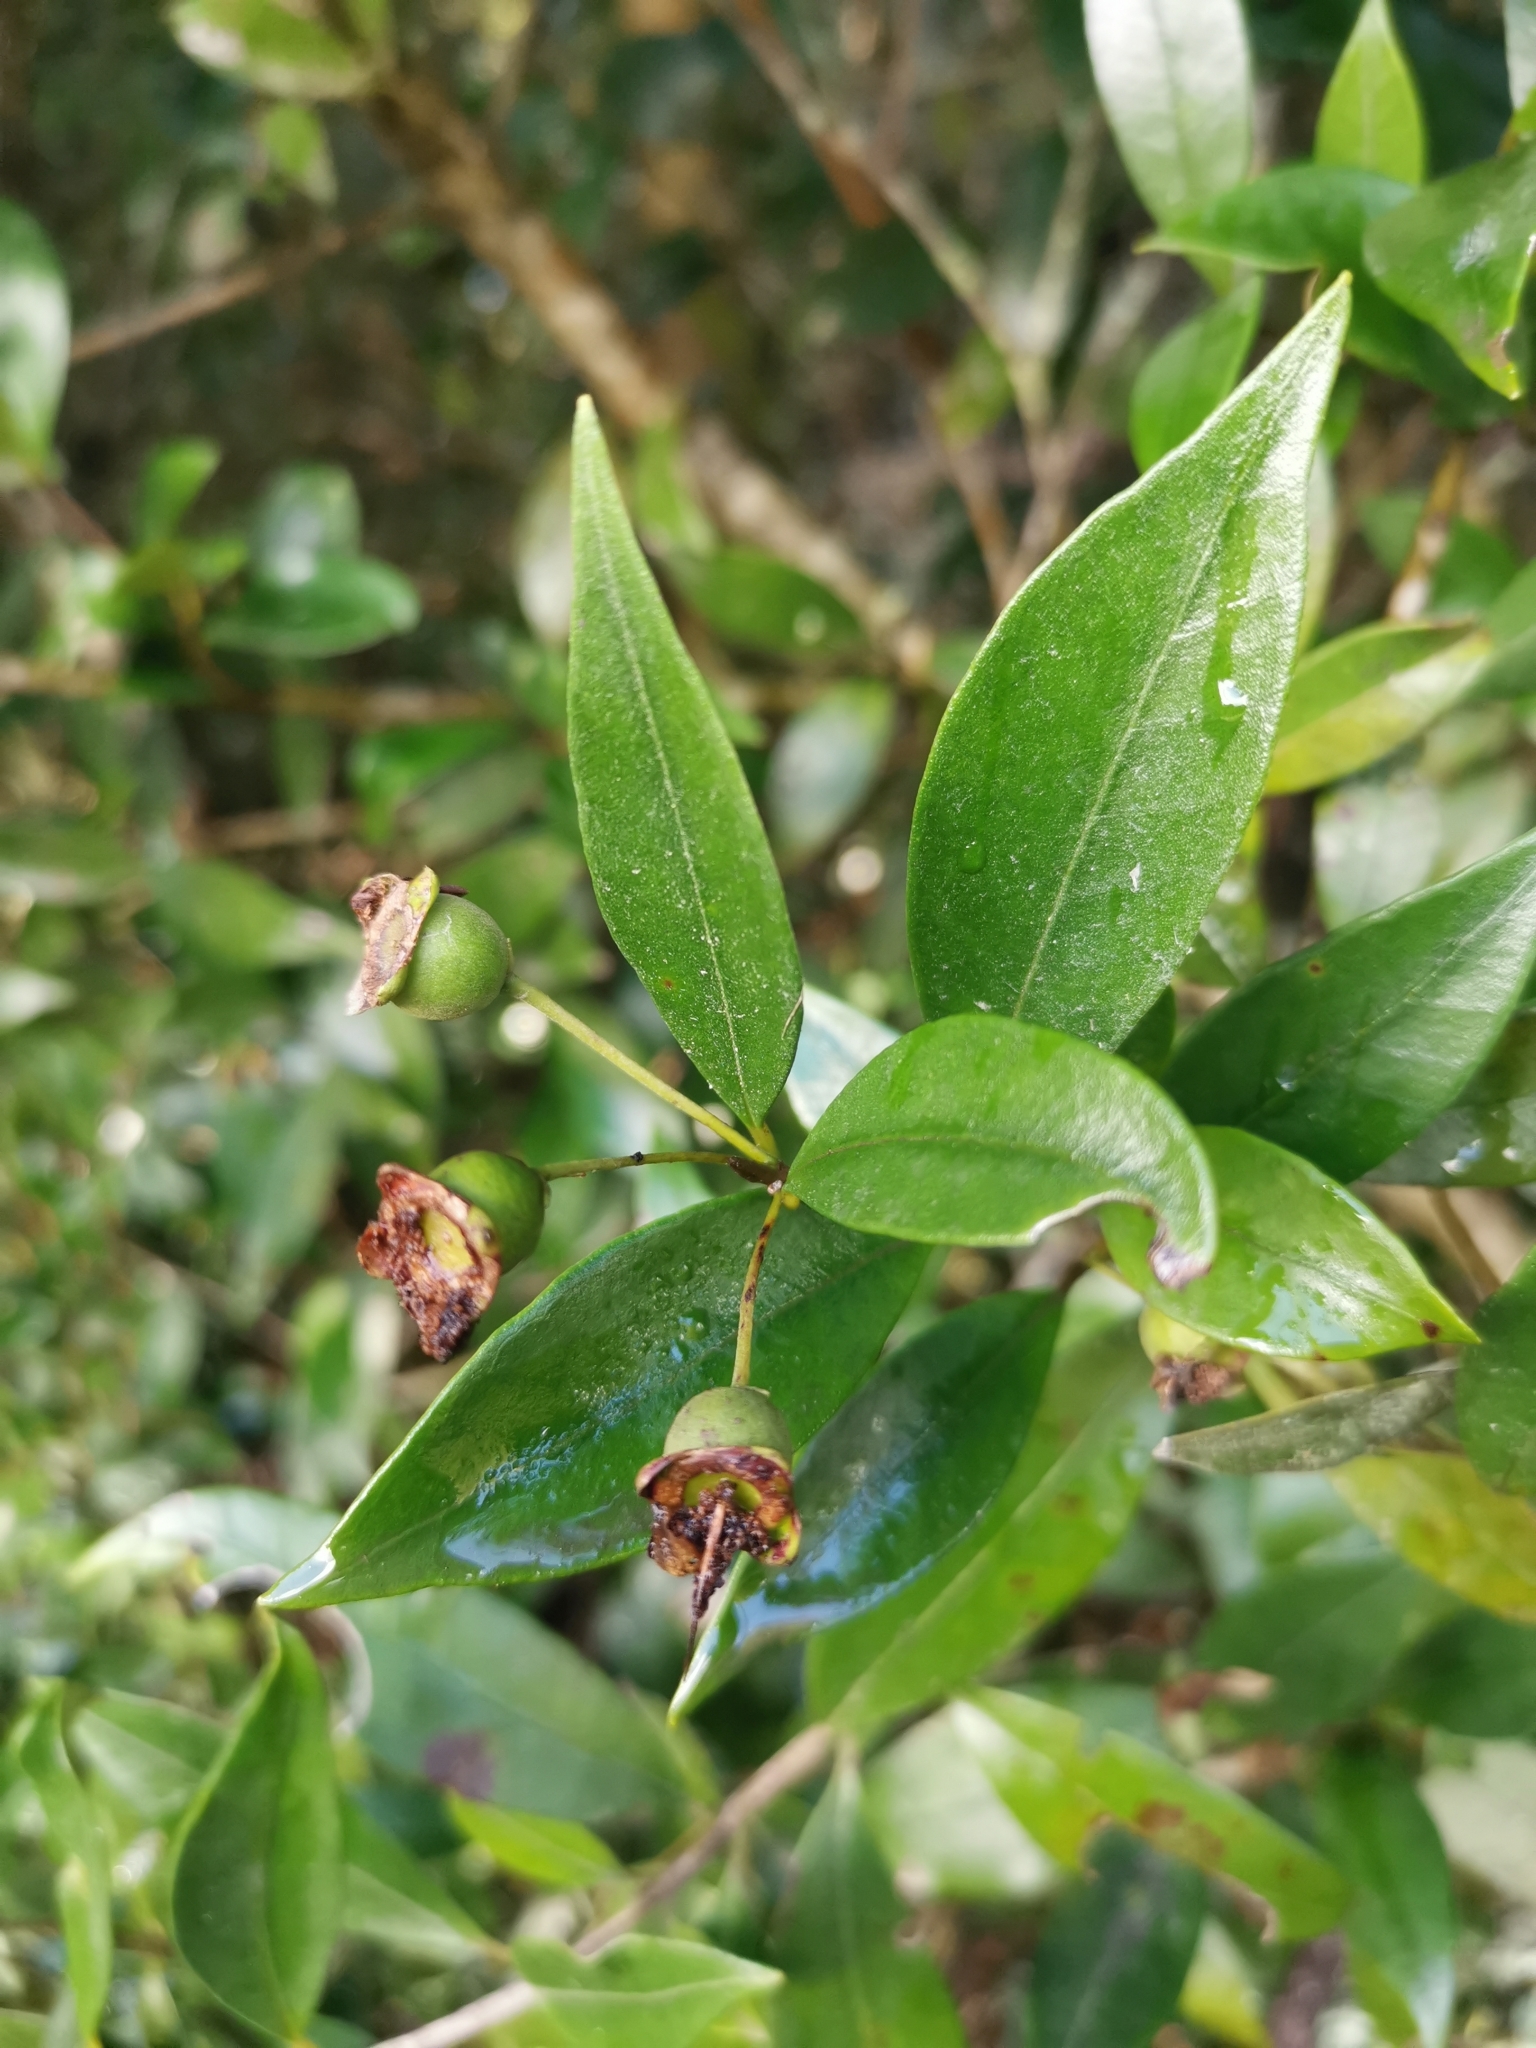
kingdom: Plantae
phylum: Tracheophyta
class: Magnoliopsida
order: Myrtales
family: Myrtaceae
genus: Myrceugenia
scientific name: Myrceugenia planipes
